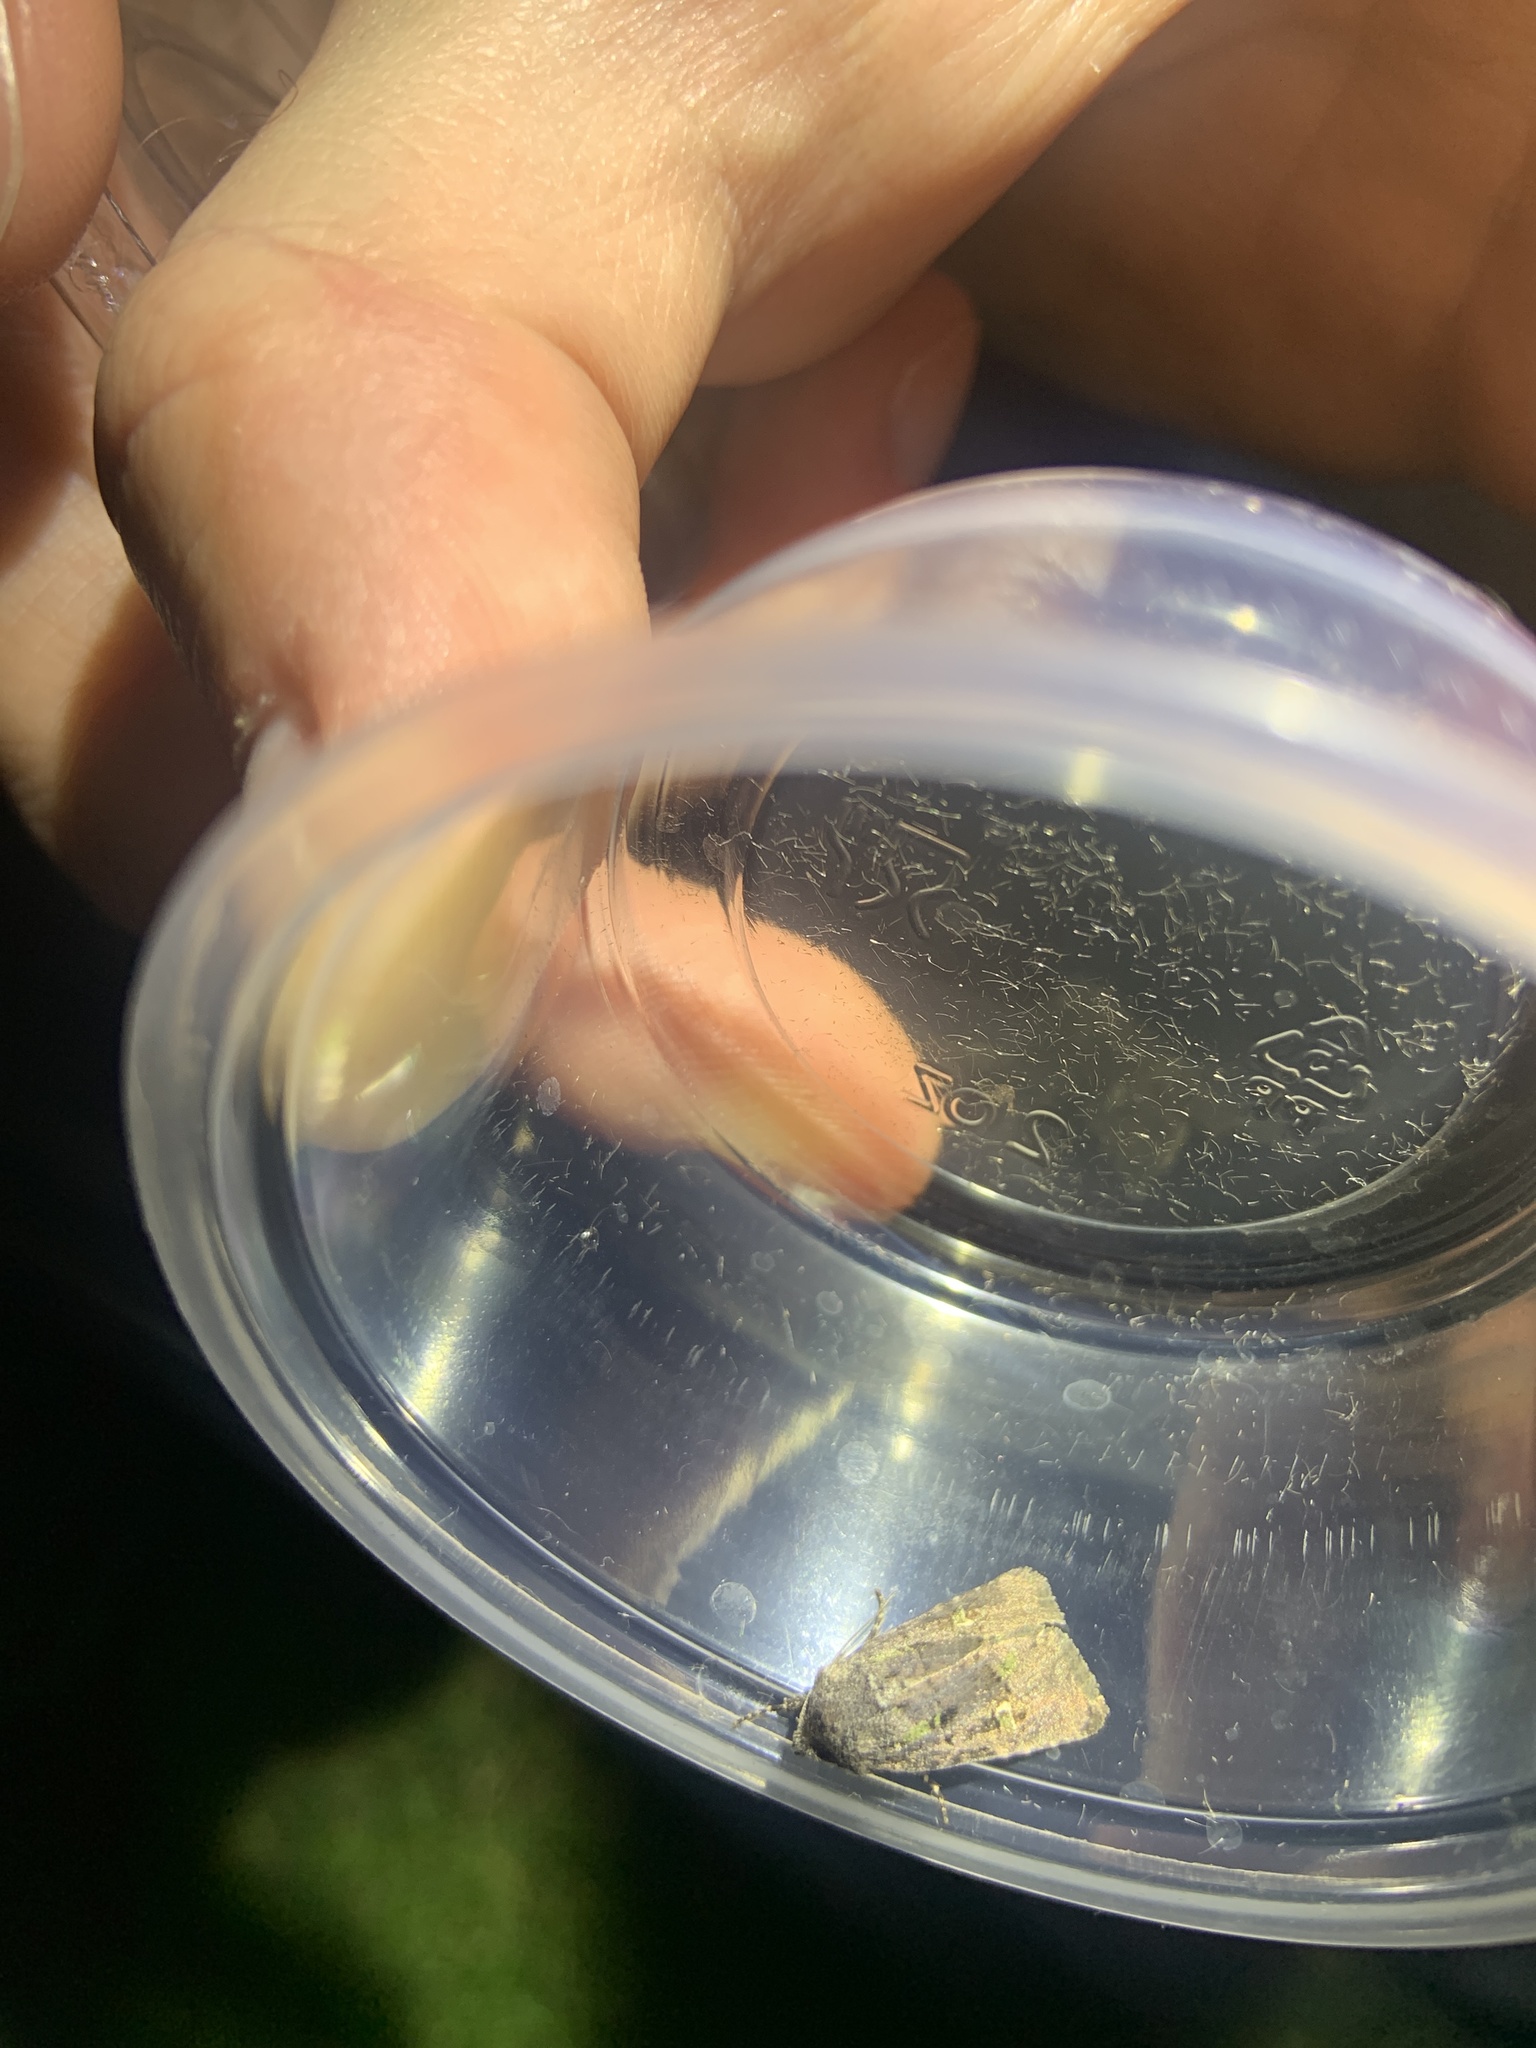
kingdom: Animalia
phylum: Arthropoda
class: Insecta
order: Lepidoptera
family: Noctuidae
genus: Lacinipolia
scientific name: Lacinipolia renigera
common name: Kidney-spotted minor
